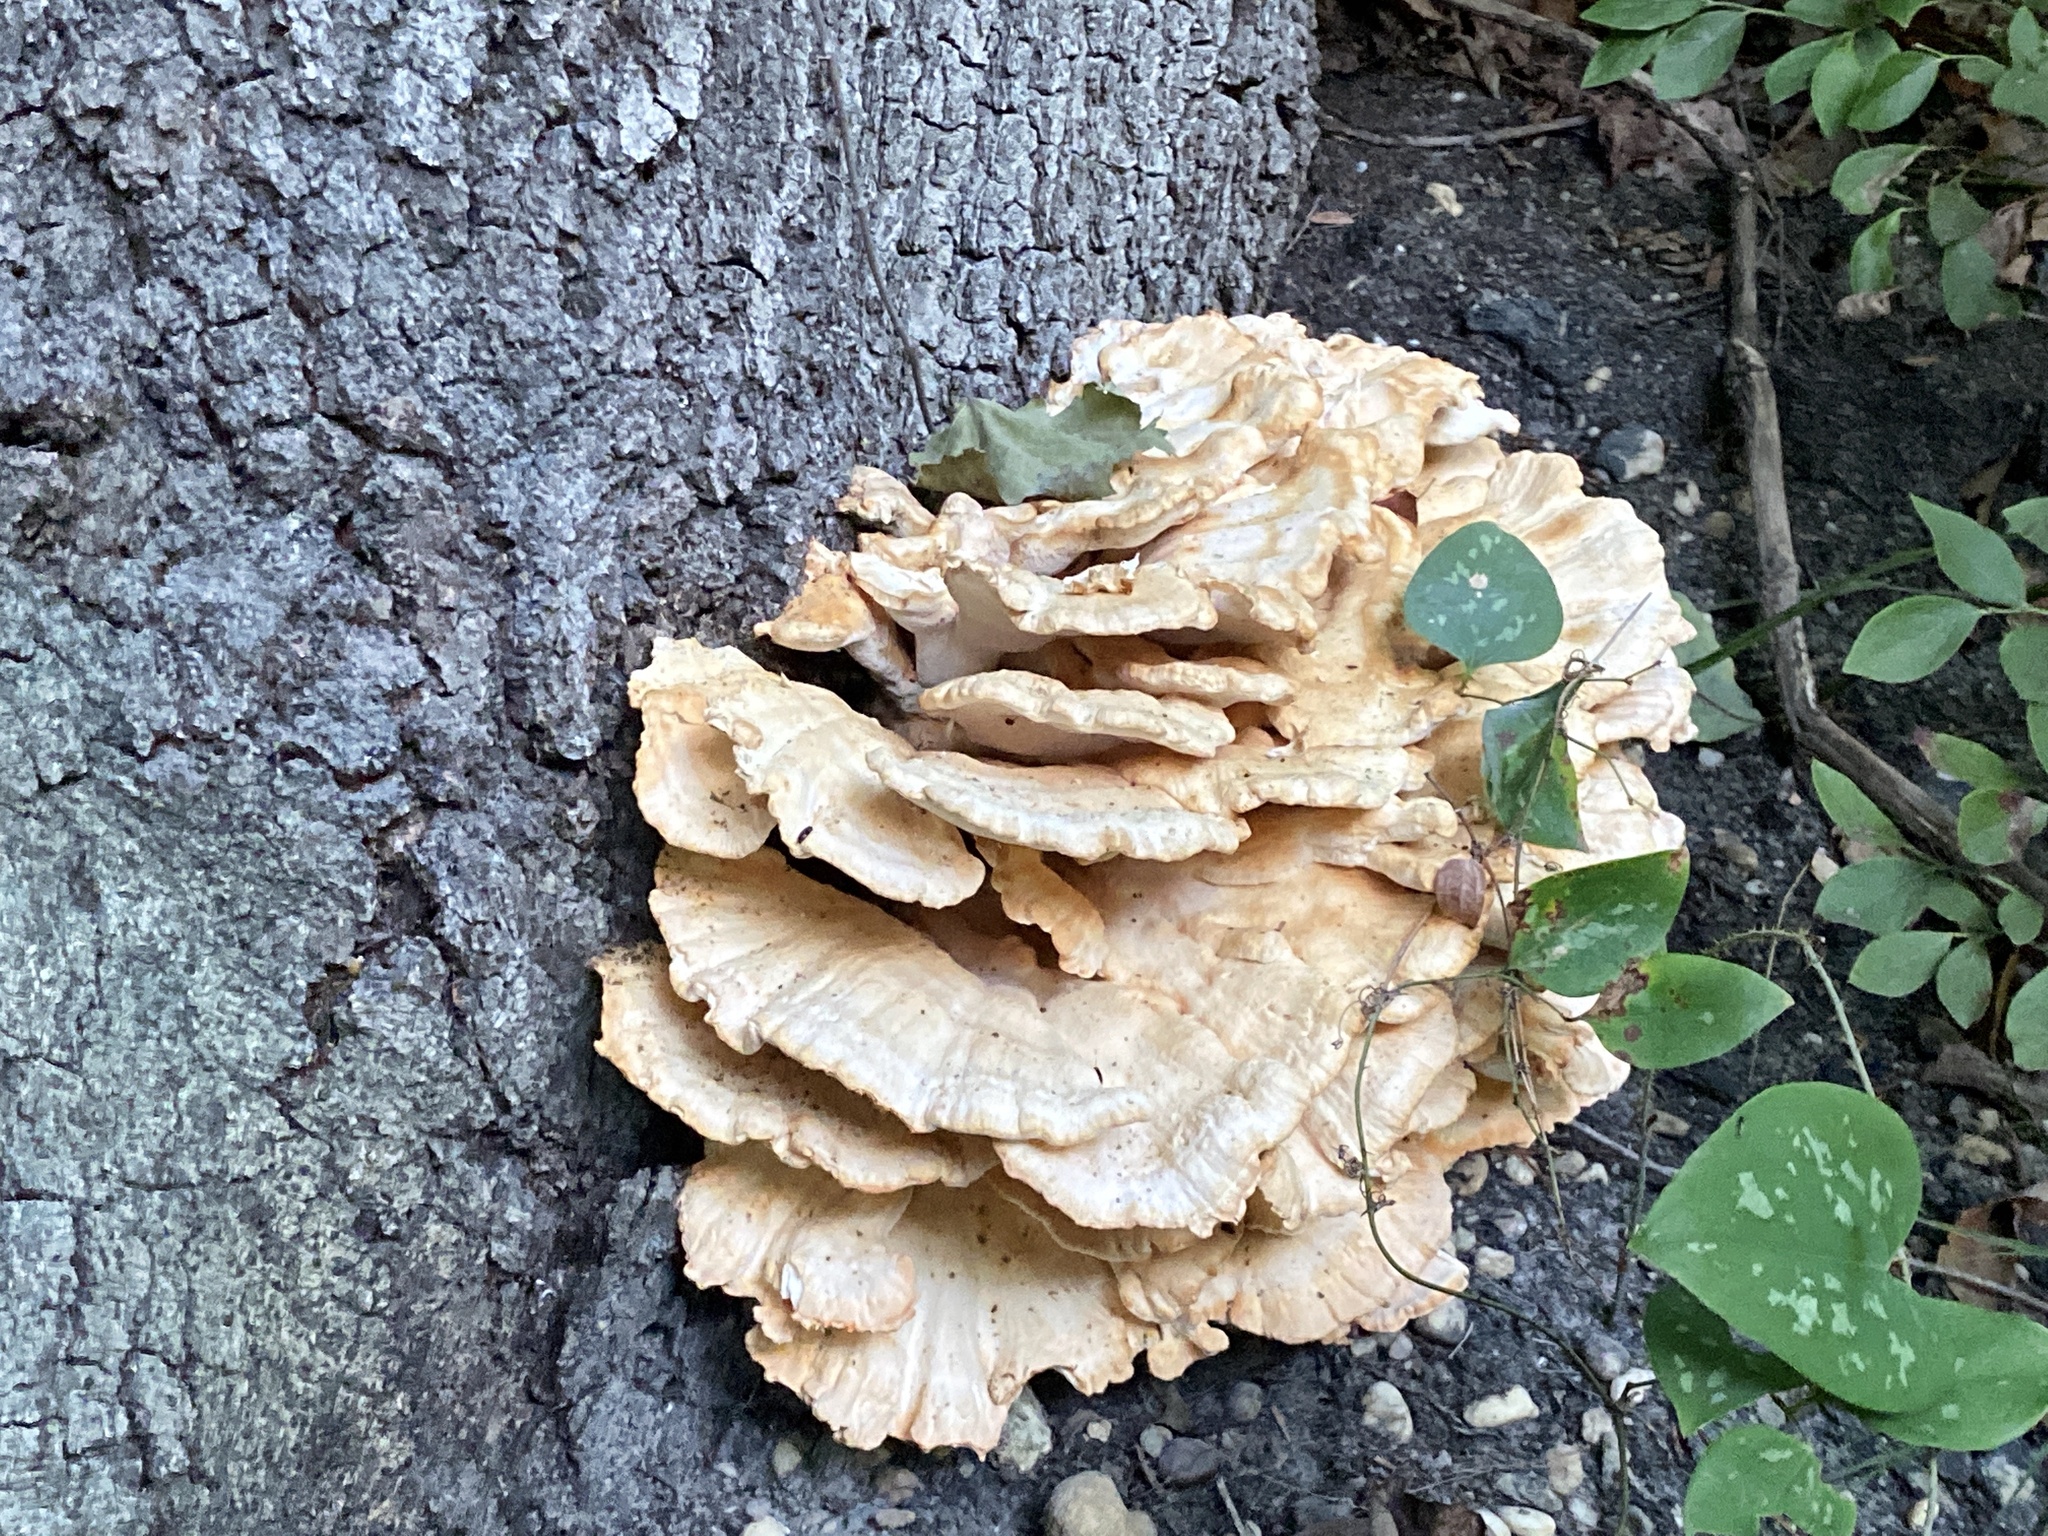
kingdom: Fungi
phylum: Basidiomycota
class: Agaricomycetes
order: Polyporales
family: Laetiporaceae
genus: Laetiporus
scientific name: Laetiporus sulphureus
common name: Chicken of the woods
